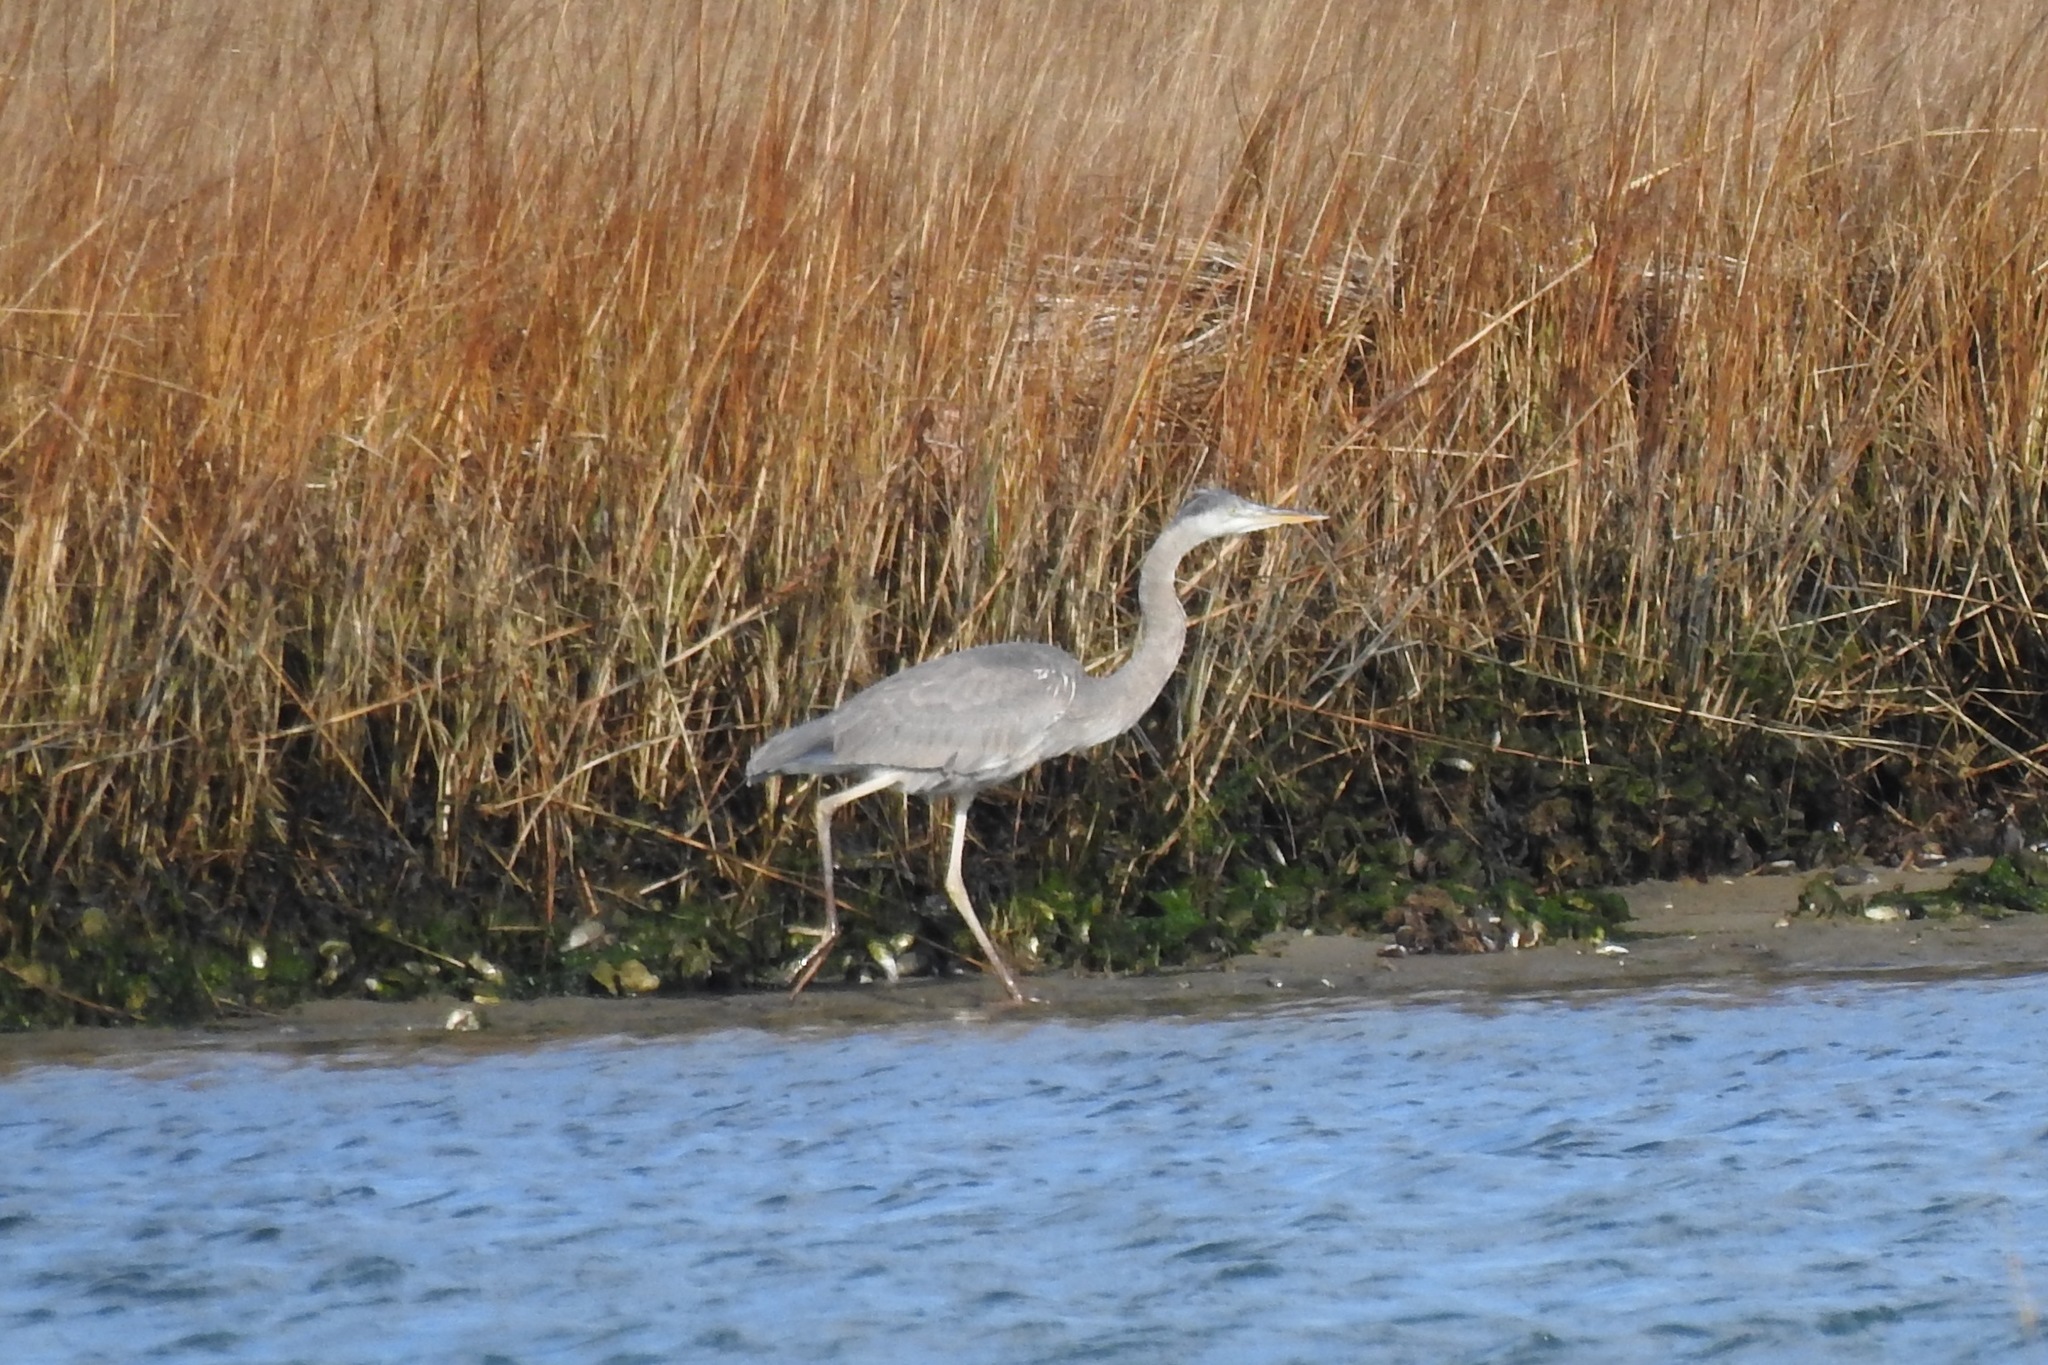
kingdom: Animalia
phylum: Chordata
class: Aves
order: Pelecaniformes
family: Ardeidae
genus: Ardea
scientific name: Ardea herodias
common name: Great blue heron
